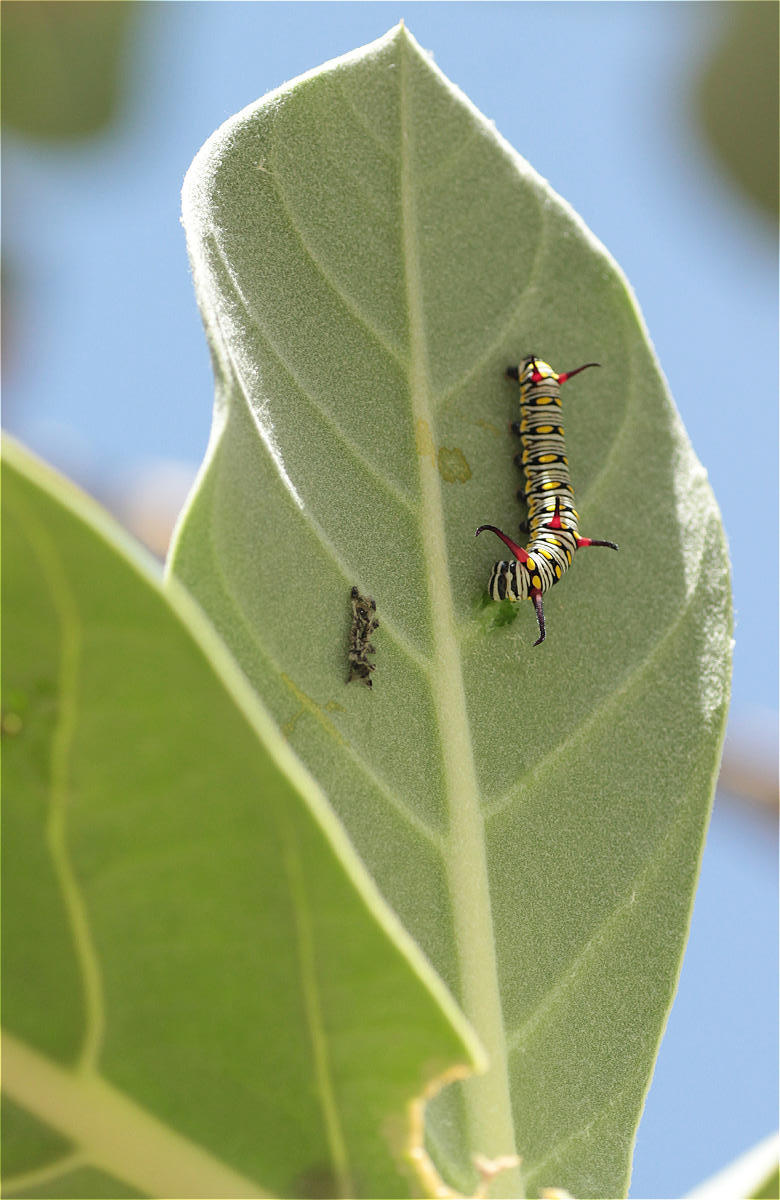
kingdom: Animalia
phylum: Arthropoda
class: Insecta
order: Lepidoptera
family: Nymphalidae
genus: Danaus
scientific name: Danaus chrysippus
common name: Plain tiger
